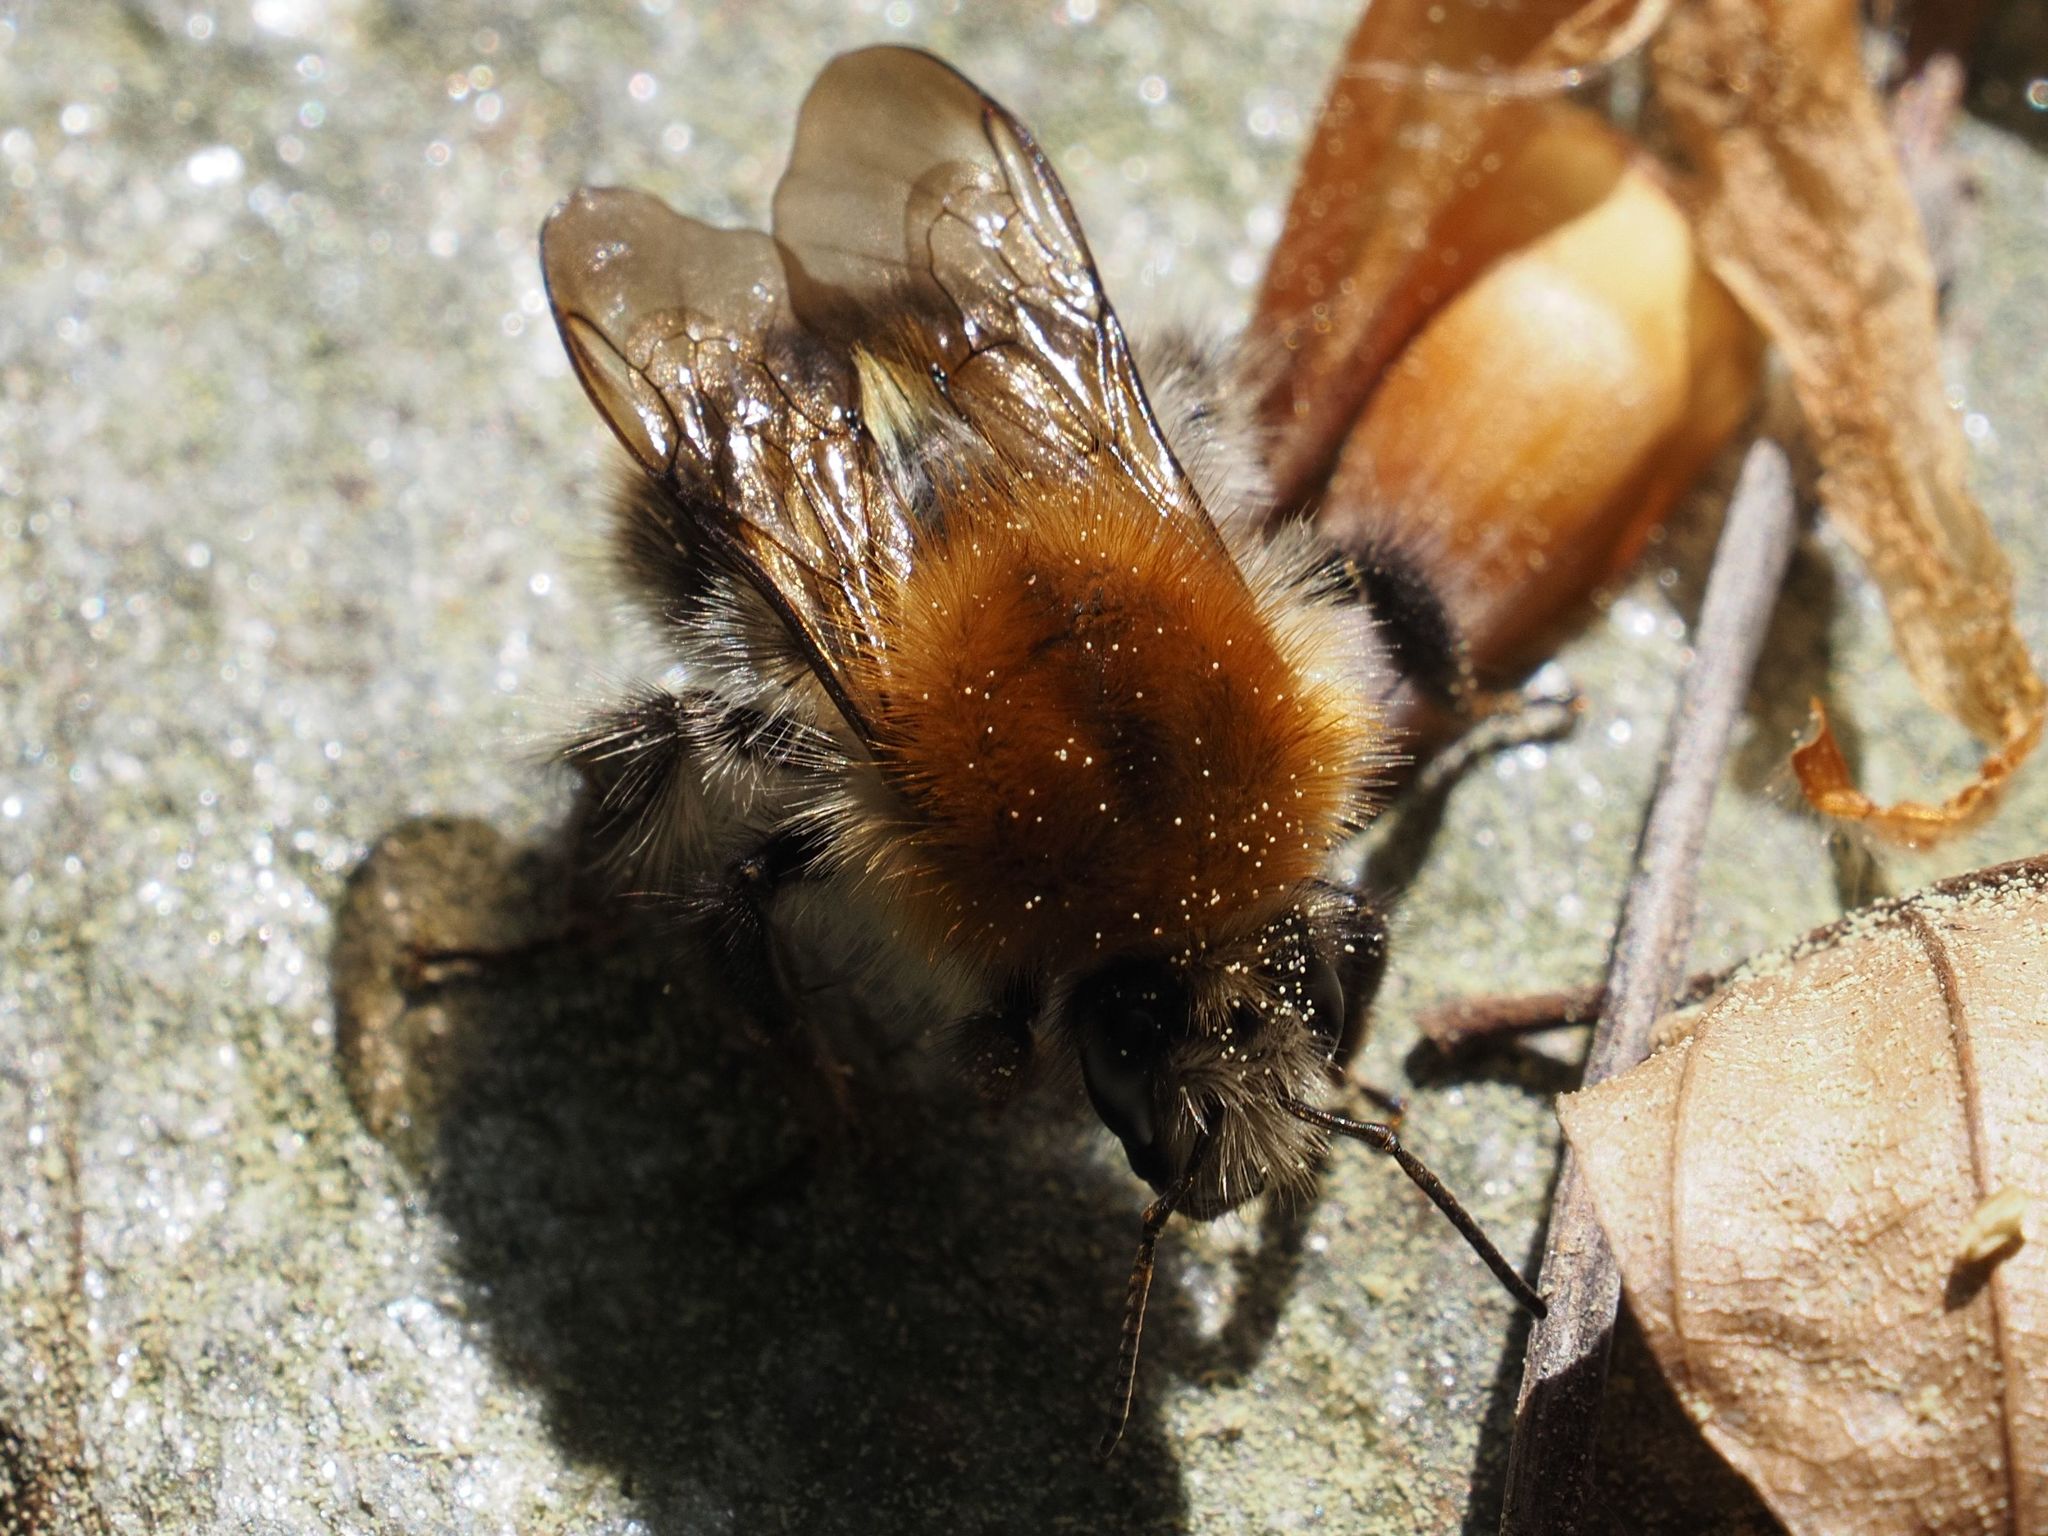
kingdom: Animalia
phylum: Arthropoda
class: Insecta
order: Hymenoptera
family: Apidae
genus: Bombus
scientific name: Bombus pascuorum
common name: Common carder bee
